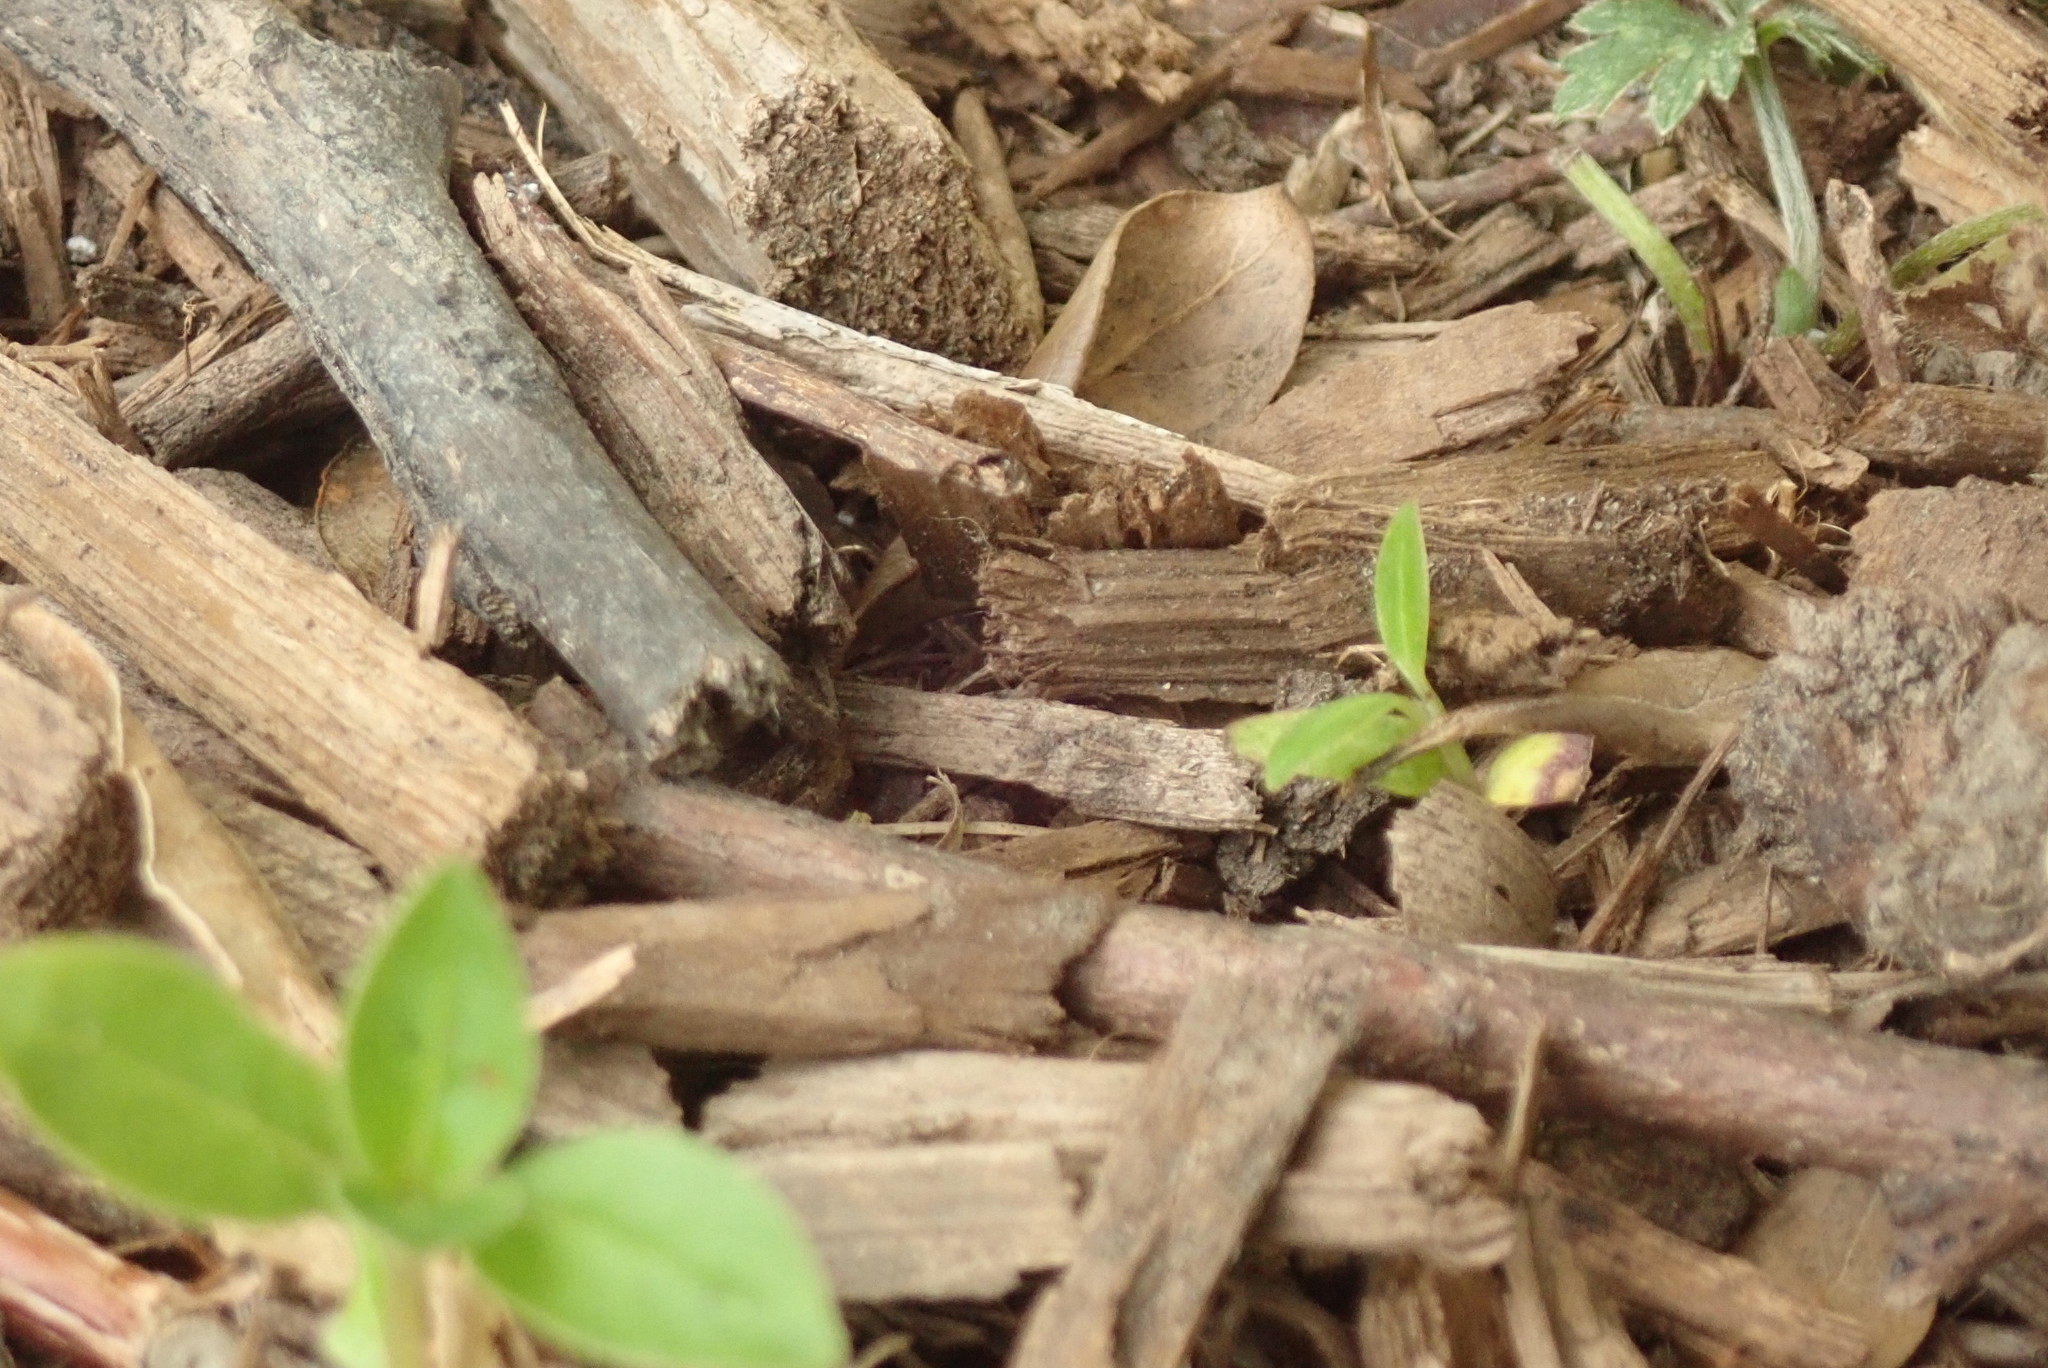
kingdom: Plantae
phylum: Tracheophyta
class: Magnoliopsida
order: Gentianales
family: Rubiaceae
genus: Coprosma
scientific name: Coprosma robusta
